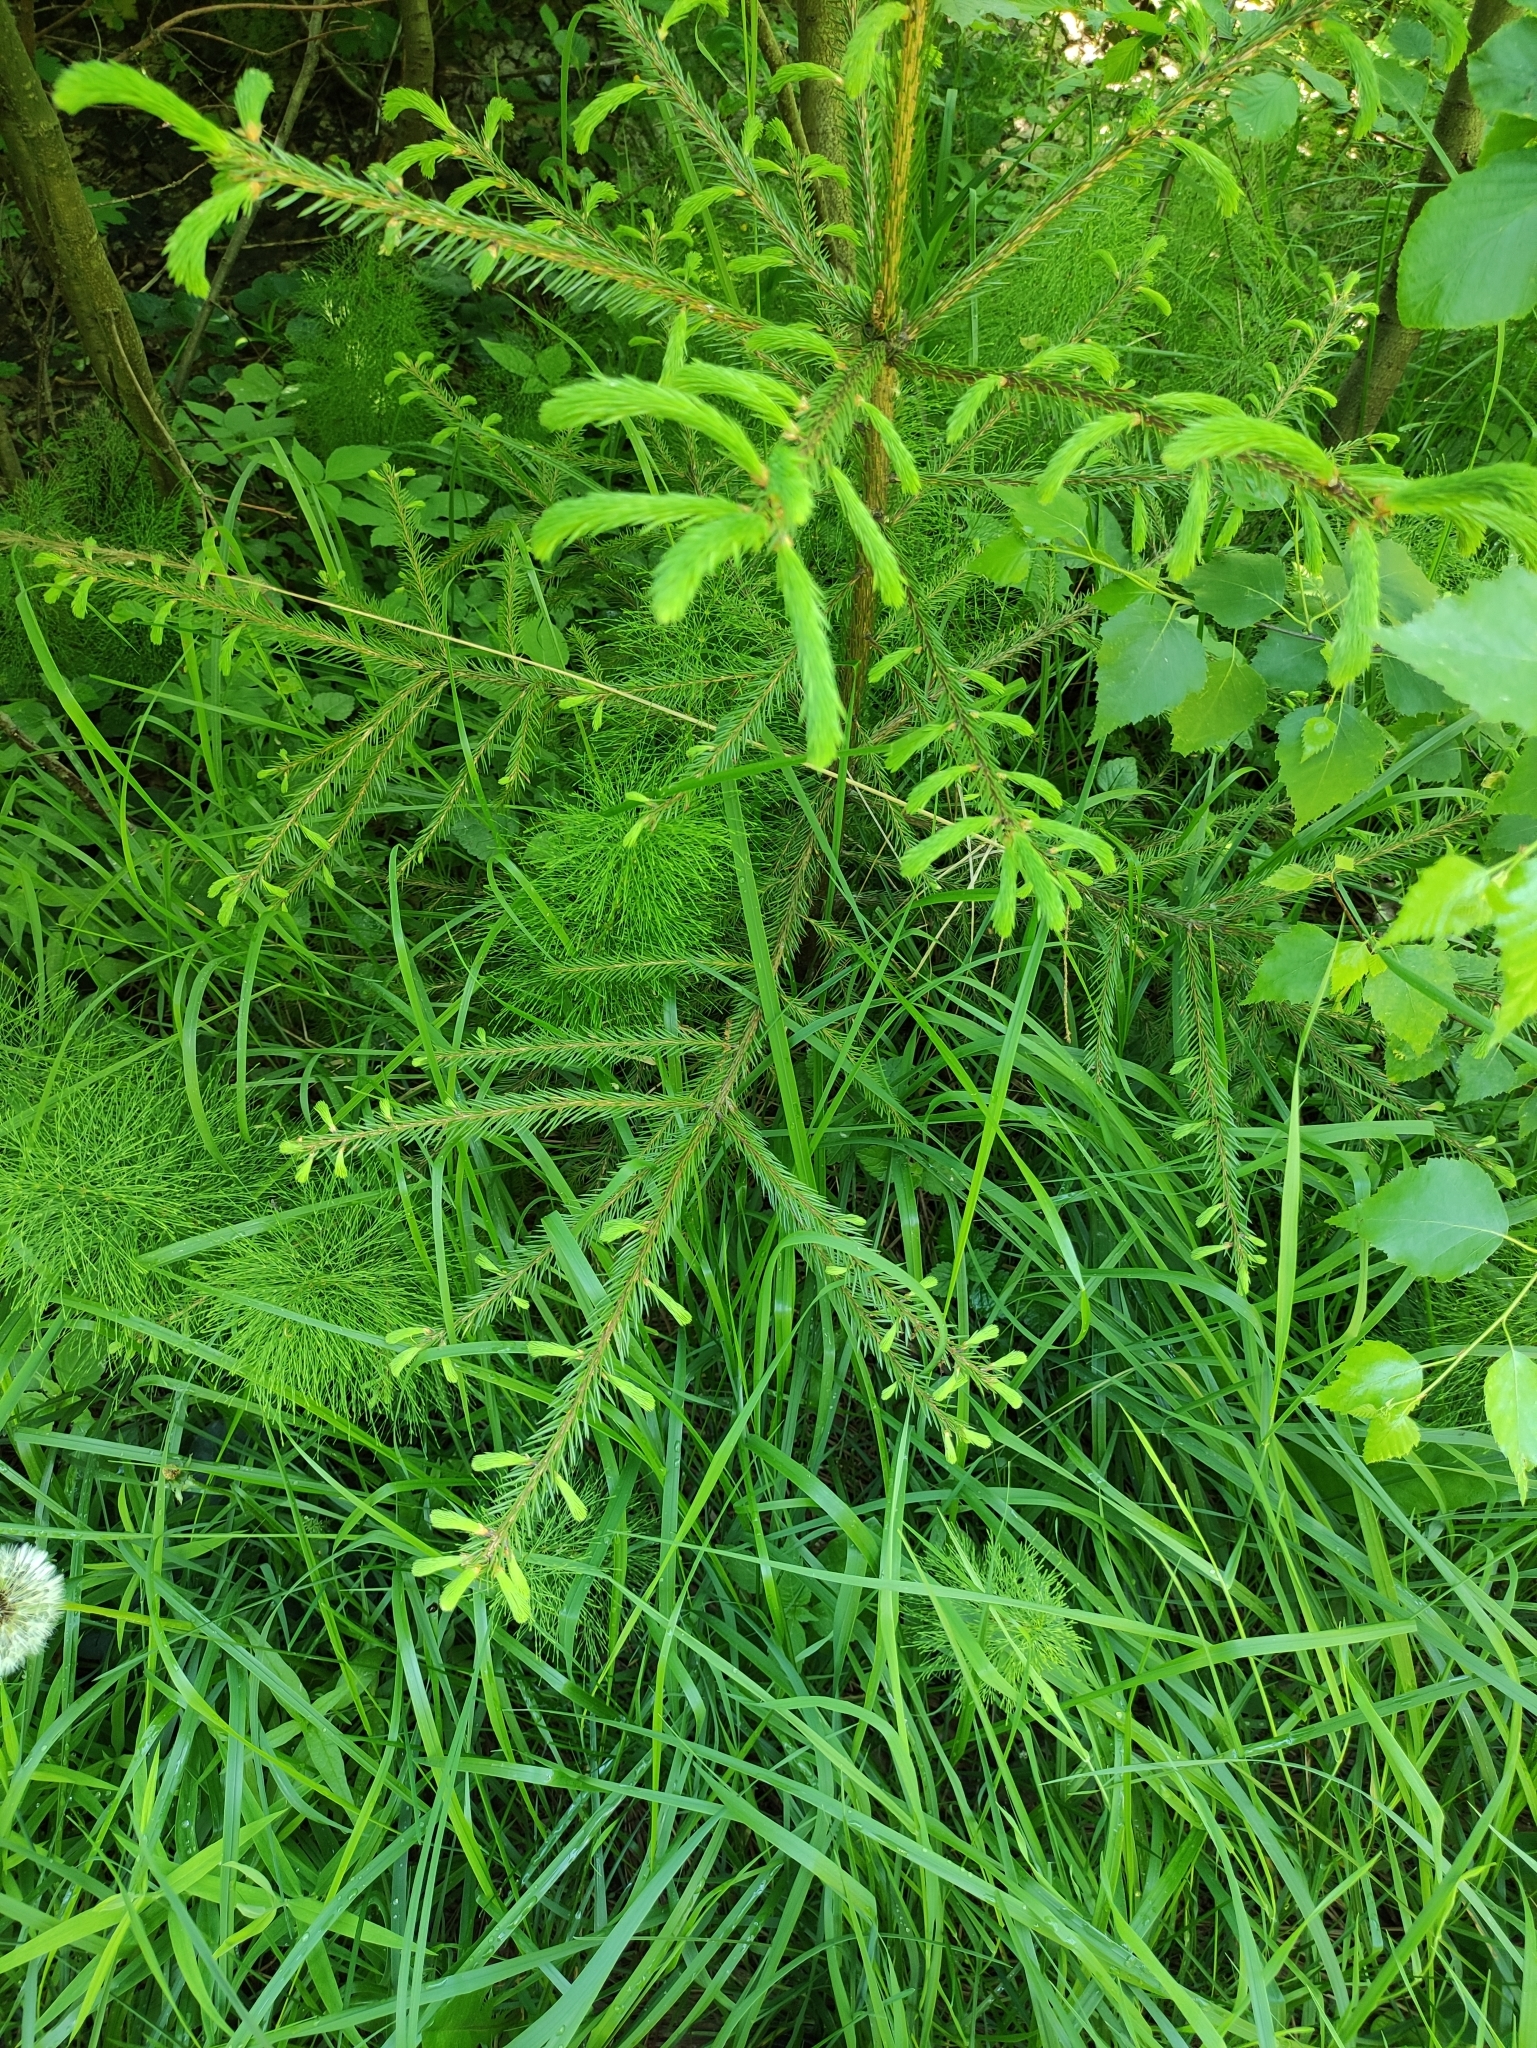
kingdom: Plantae
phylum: Tracheophyta
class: Pinopsida
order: Pinales
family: Pinaceae
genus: Picea
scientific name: Picea abies
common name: Norway spruce
